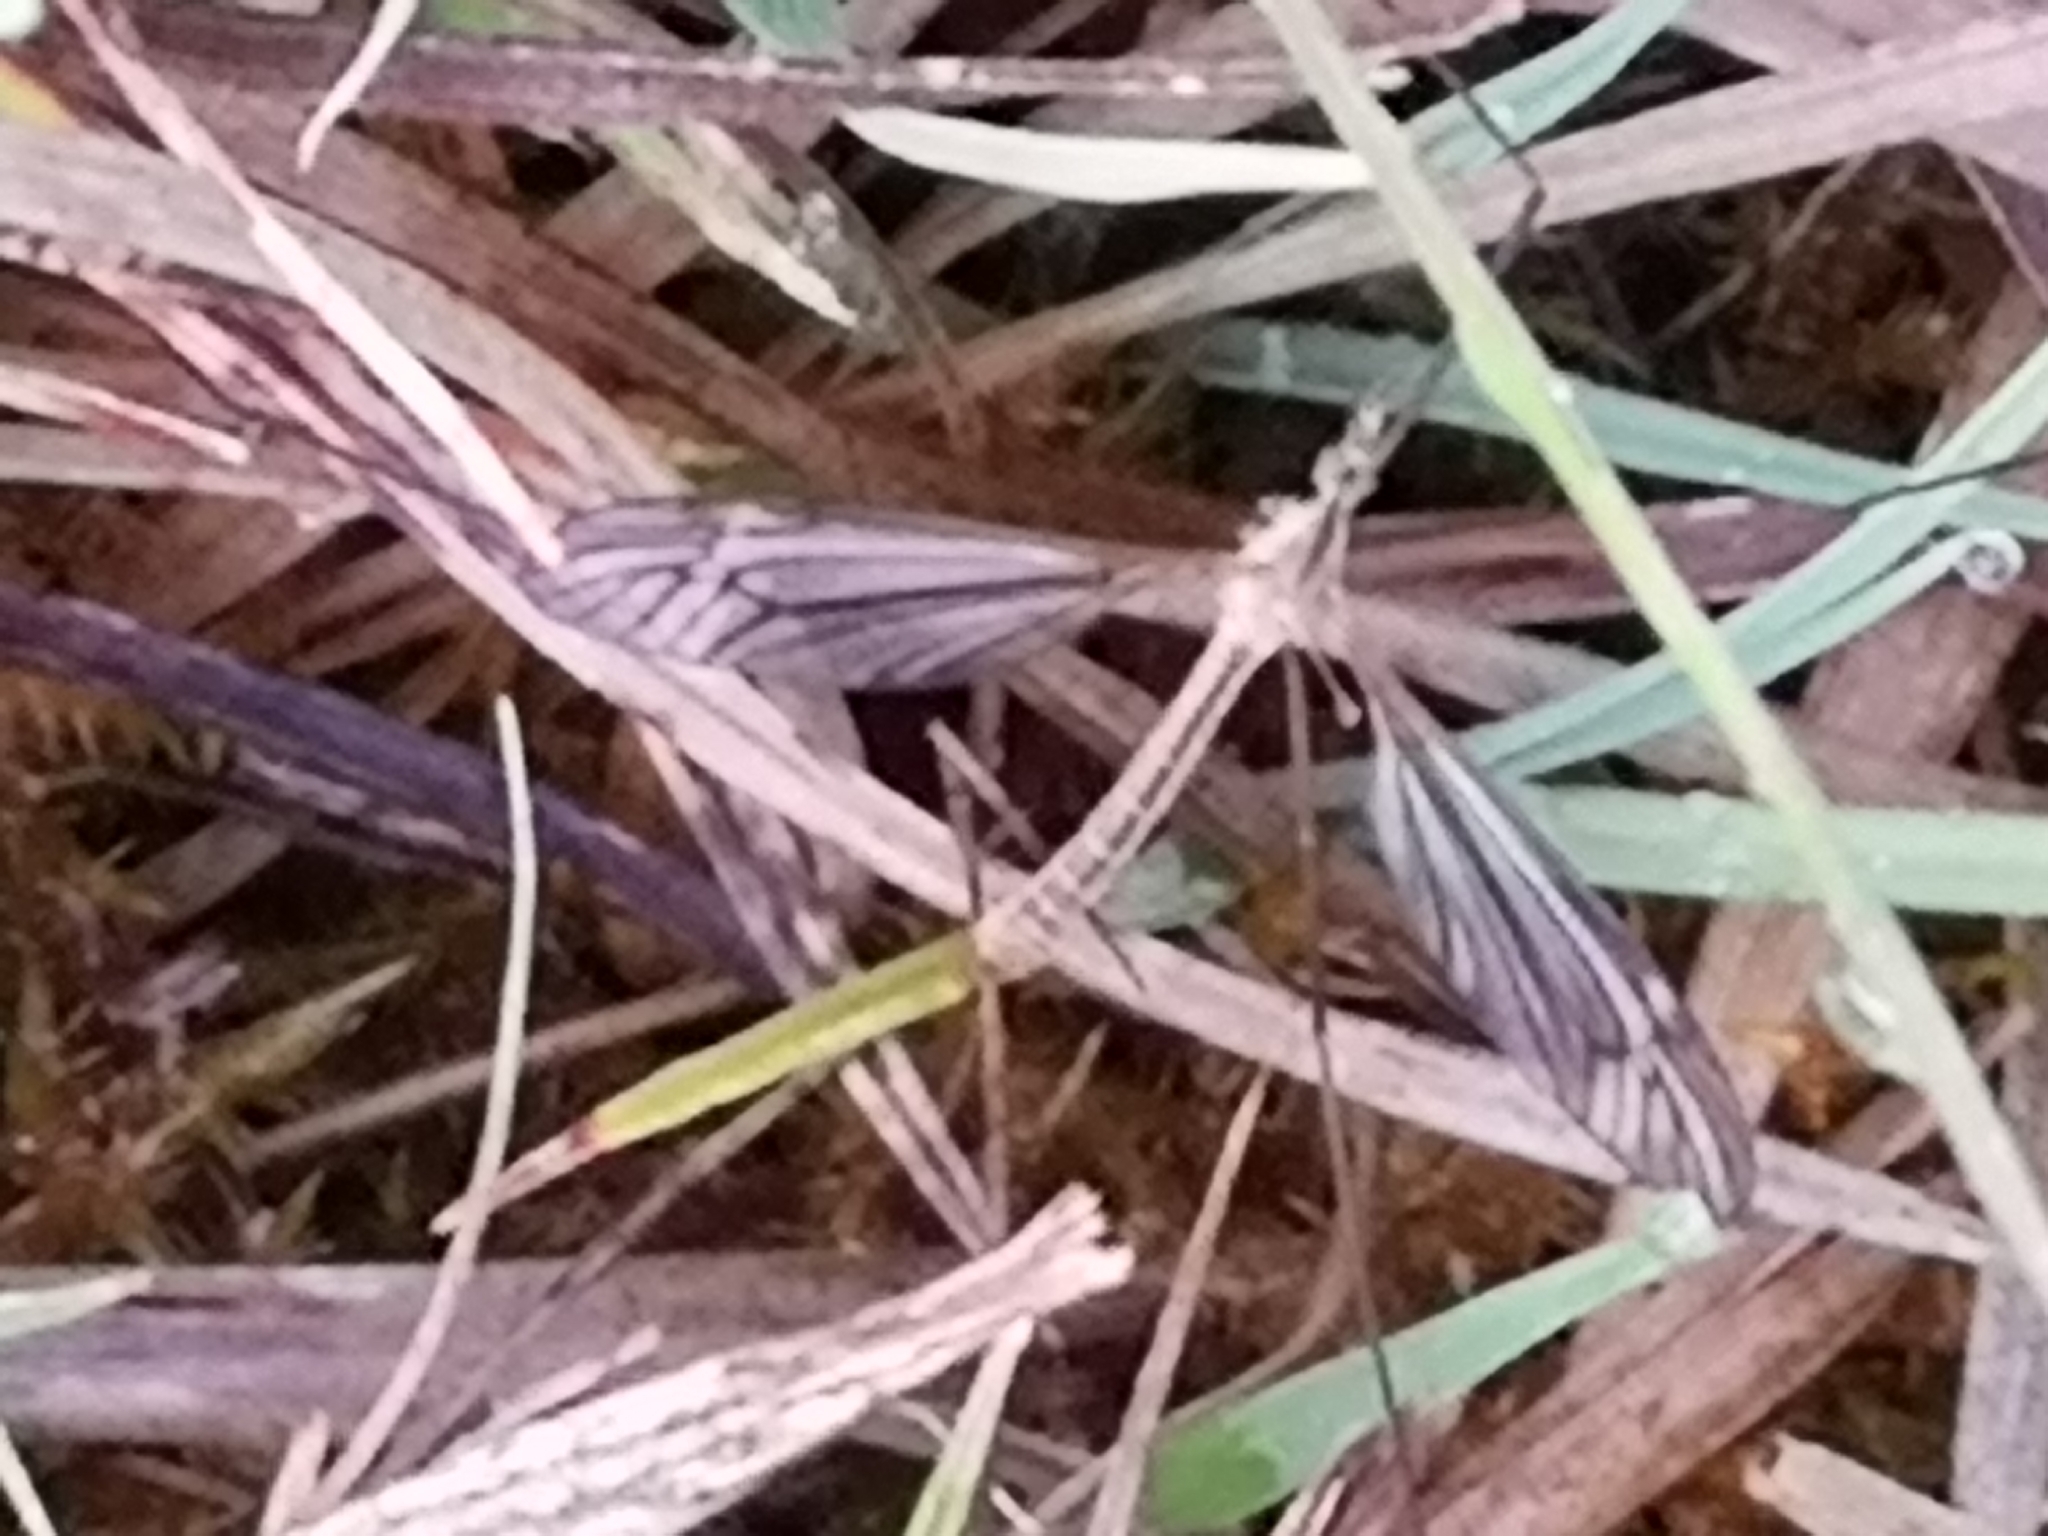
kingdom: Animalia
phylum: Arthropoda
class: Insecta
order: Diptera
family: Tipulidae
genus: Tipula
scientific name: Tipula paludosa
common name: European cranefly
